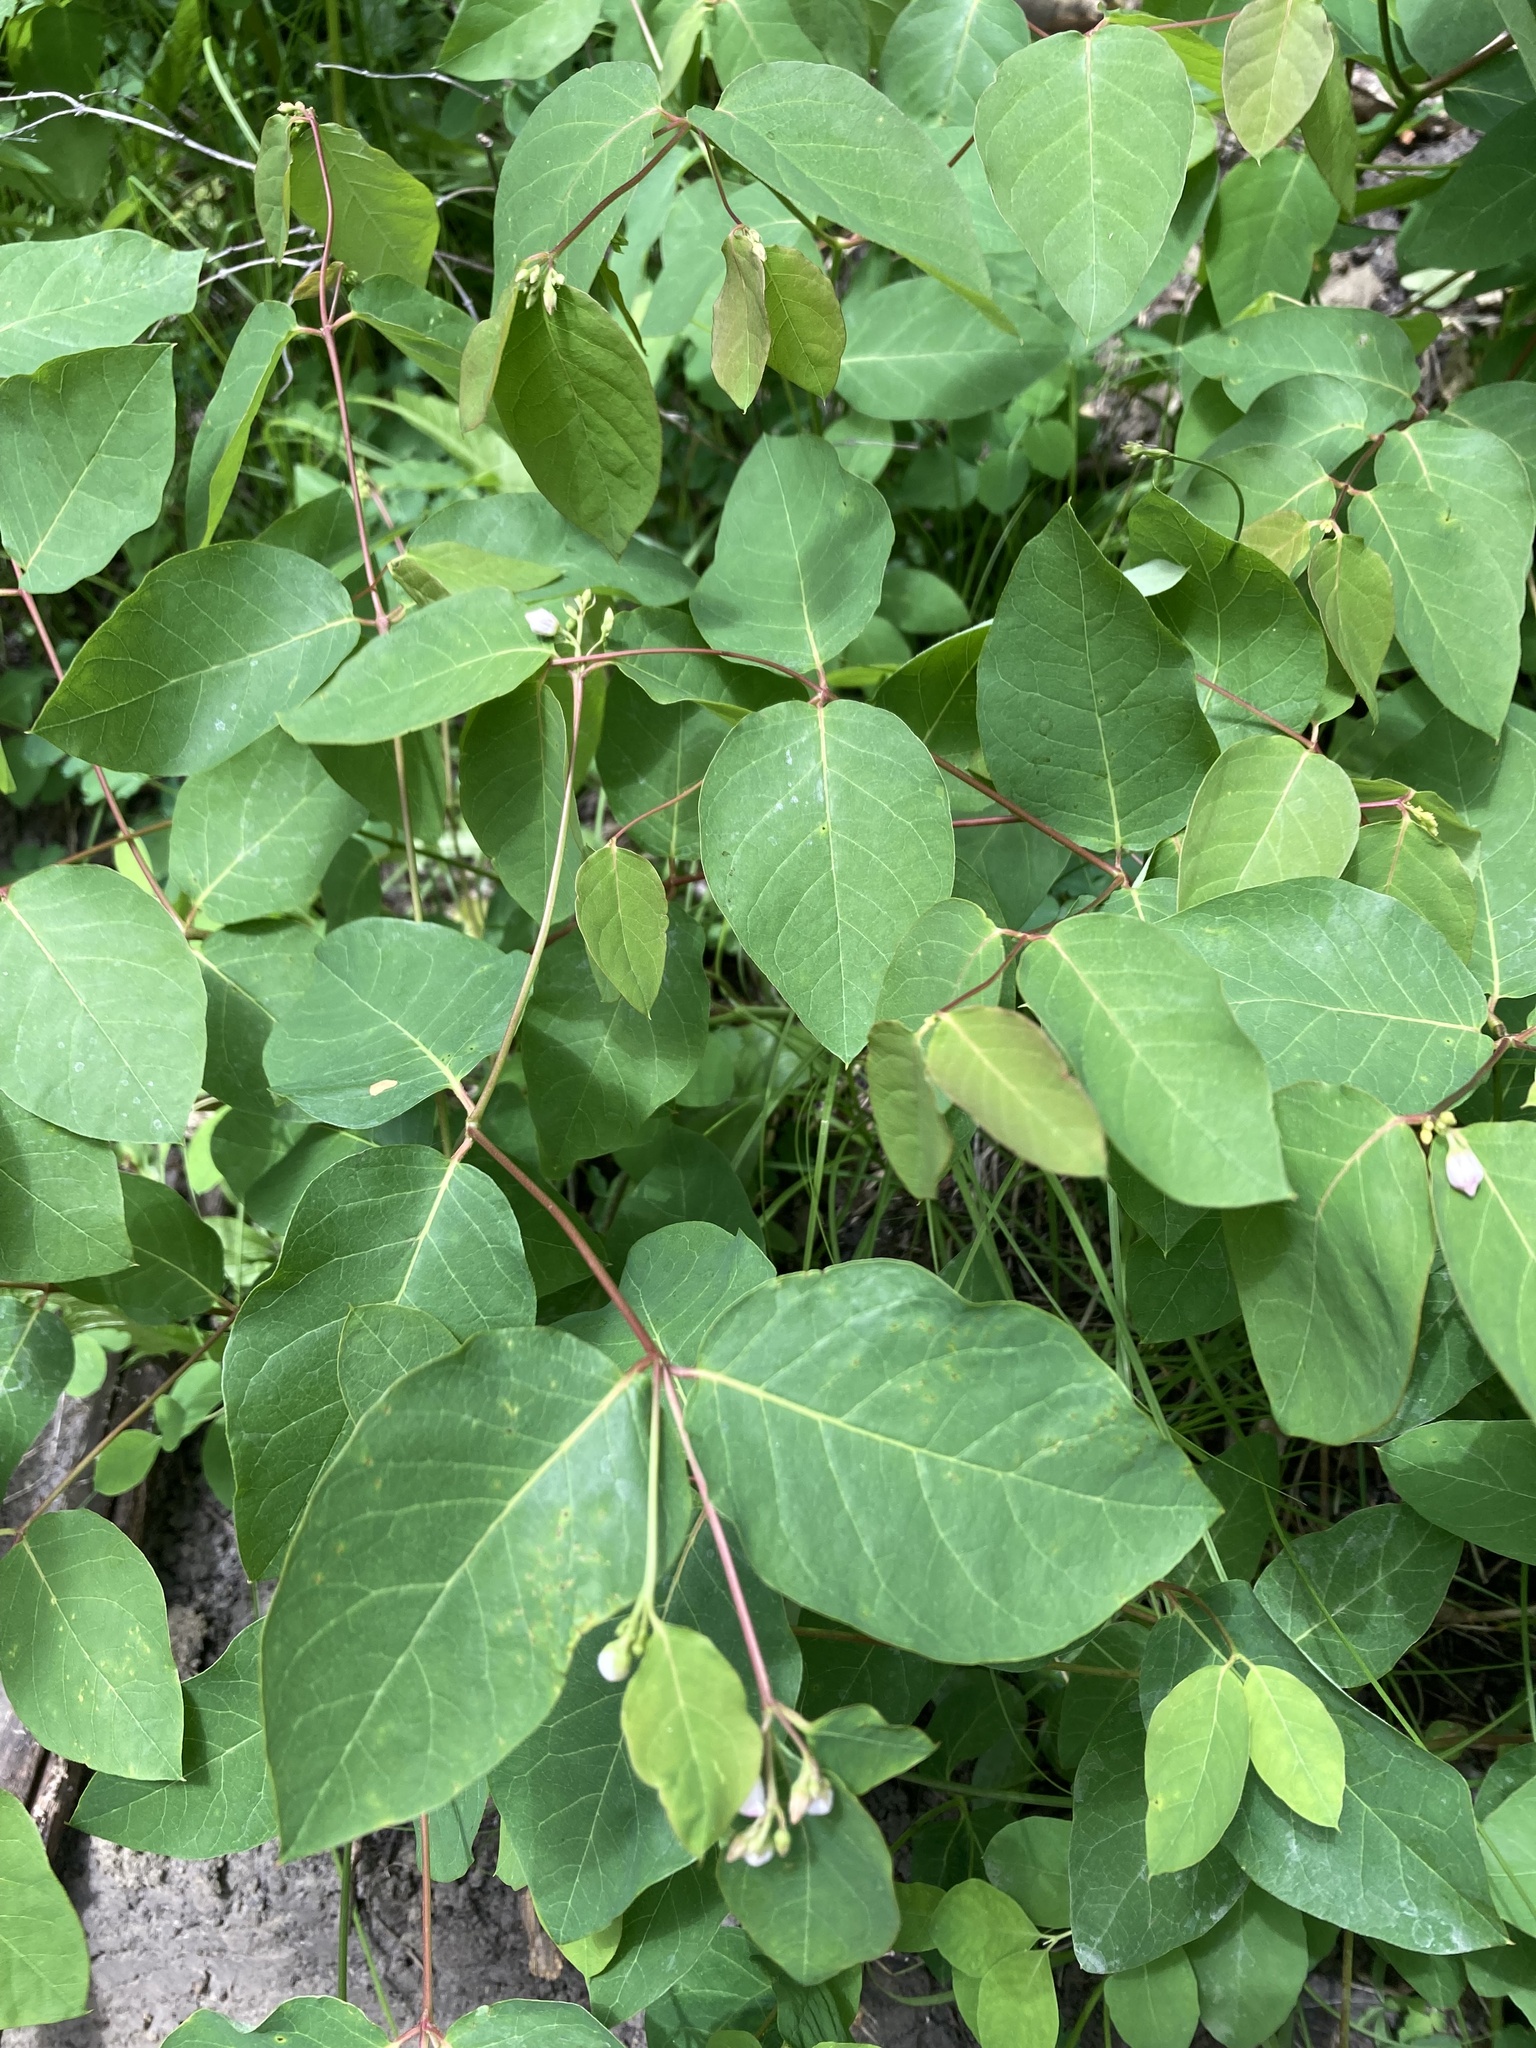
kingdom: Plantae
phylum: Tracheophyta
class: Magnoliopsida
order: Gentianales
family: Apocynaceae
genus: Apocynum
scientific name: Apocynum androsaemifolium
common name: Spreading dogbane
